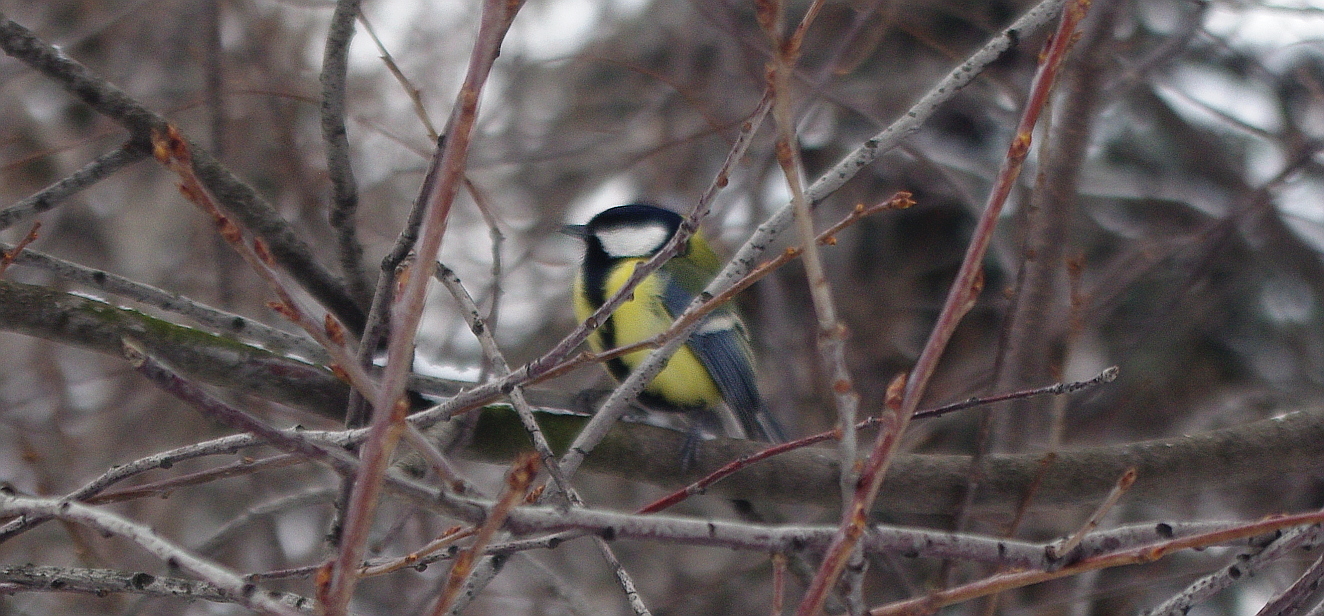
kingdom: Animalia
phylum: Chordata
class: Aves
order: Passeriformes
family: Paridae
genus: Parus
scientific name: Parus major
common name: Great tit
